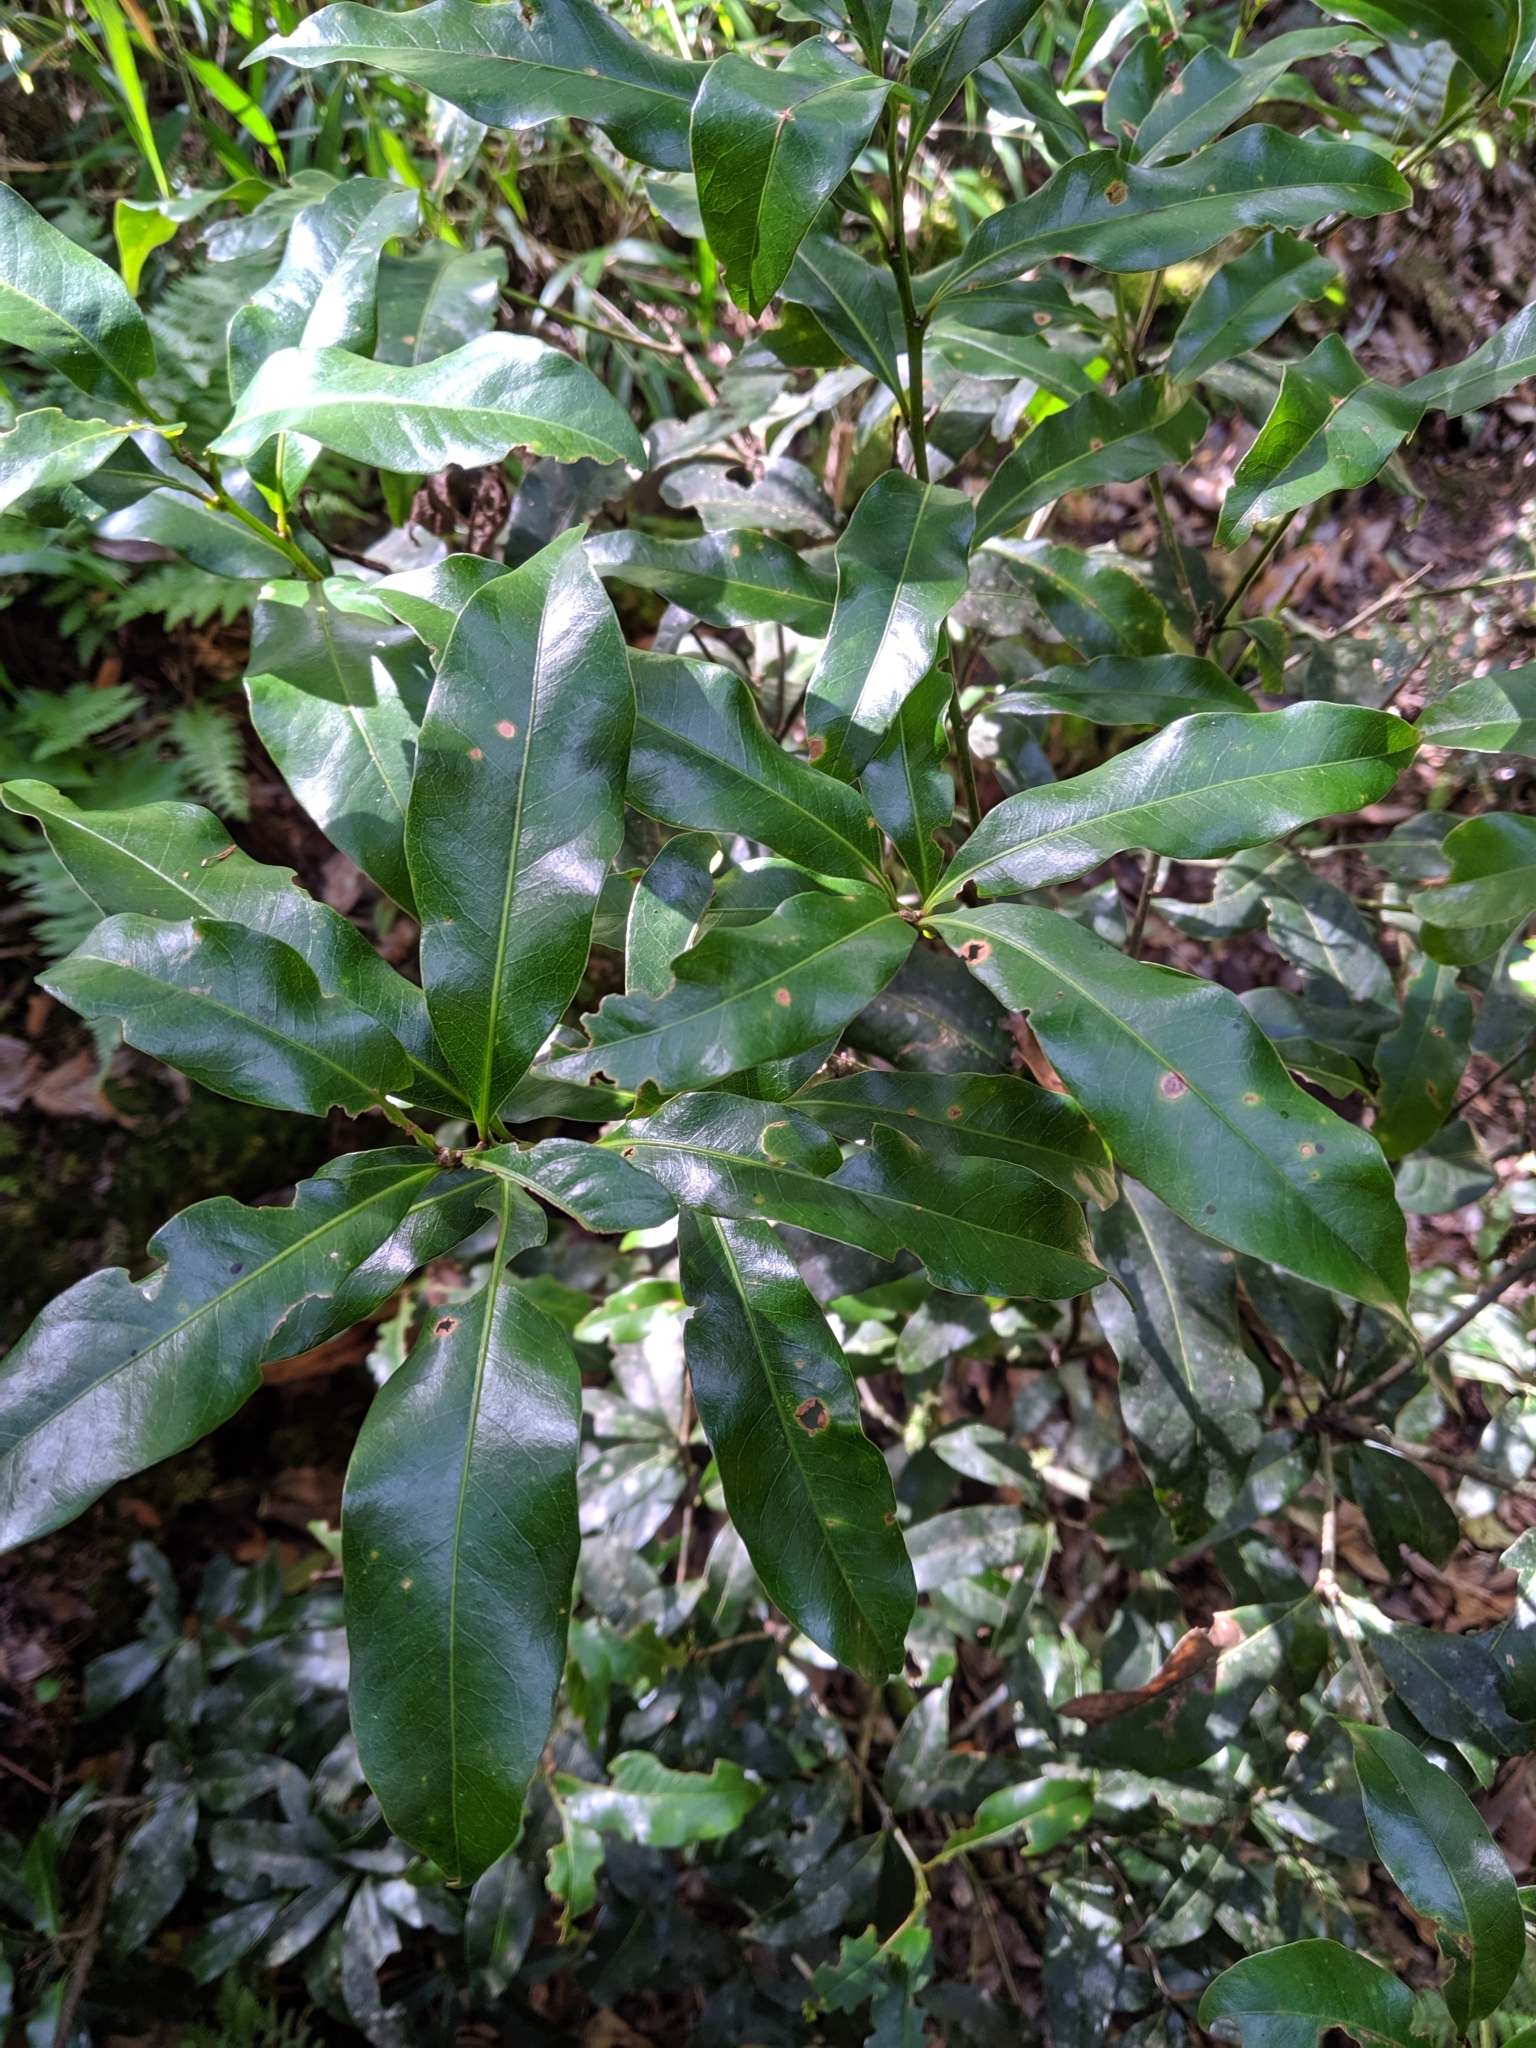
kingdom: Plantae
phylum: Tracheophyta
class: Magnoliopsida
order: Fagales
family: Fagaceae
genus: Lithocarpus
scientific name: Lithocarpus hancei
